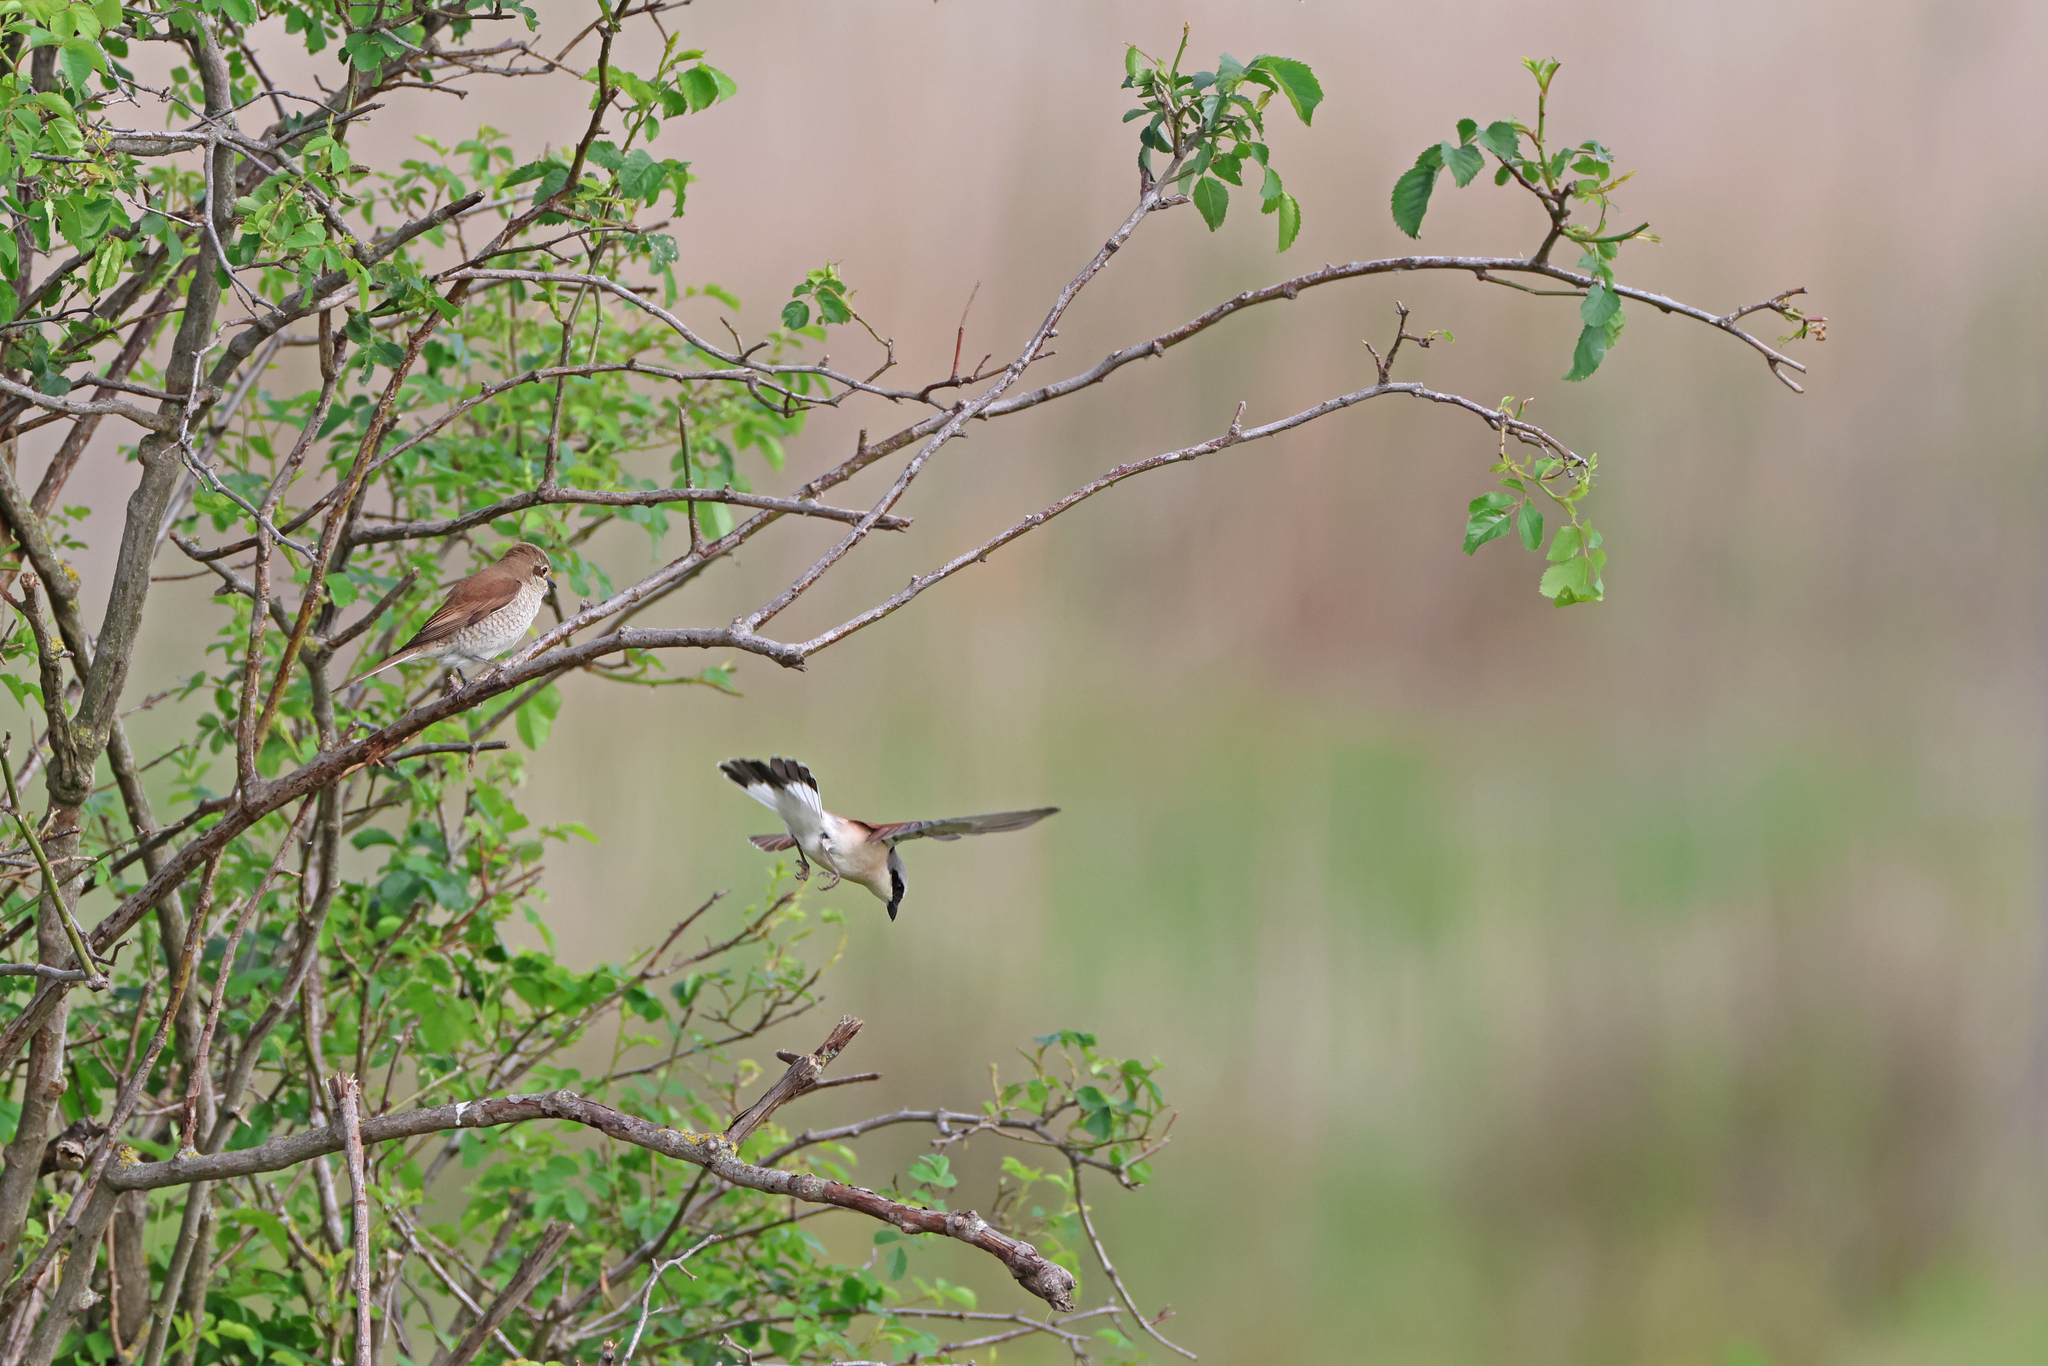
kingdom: Animalia
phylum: Chordata
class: Aves
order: Passeriformes
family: Laniidae
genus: Lanius
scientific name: Lanius collurio
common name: Red-backed shrike
